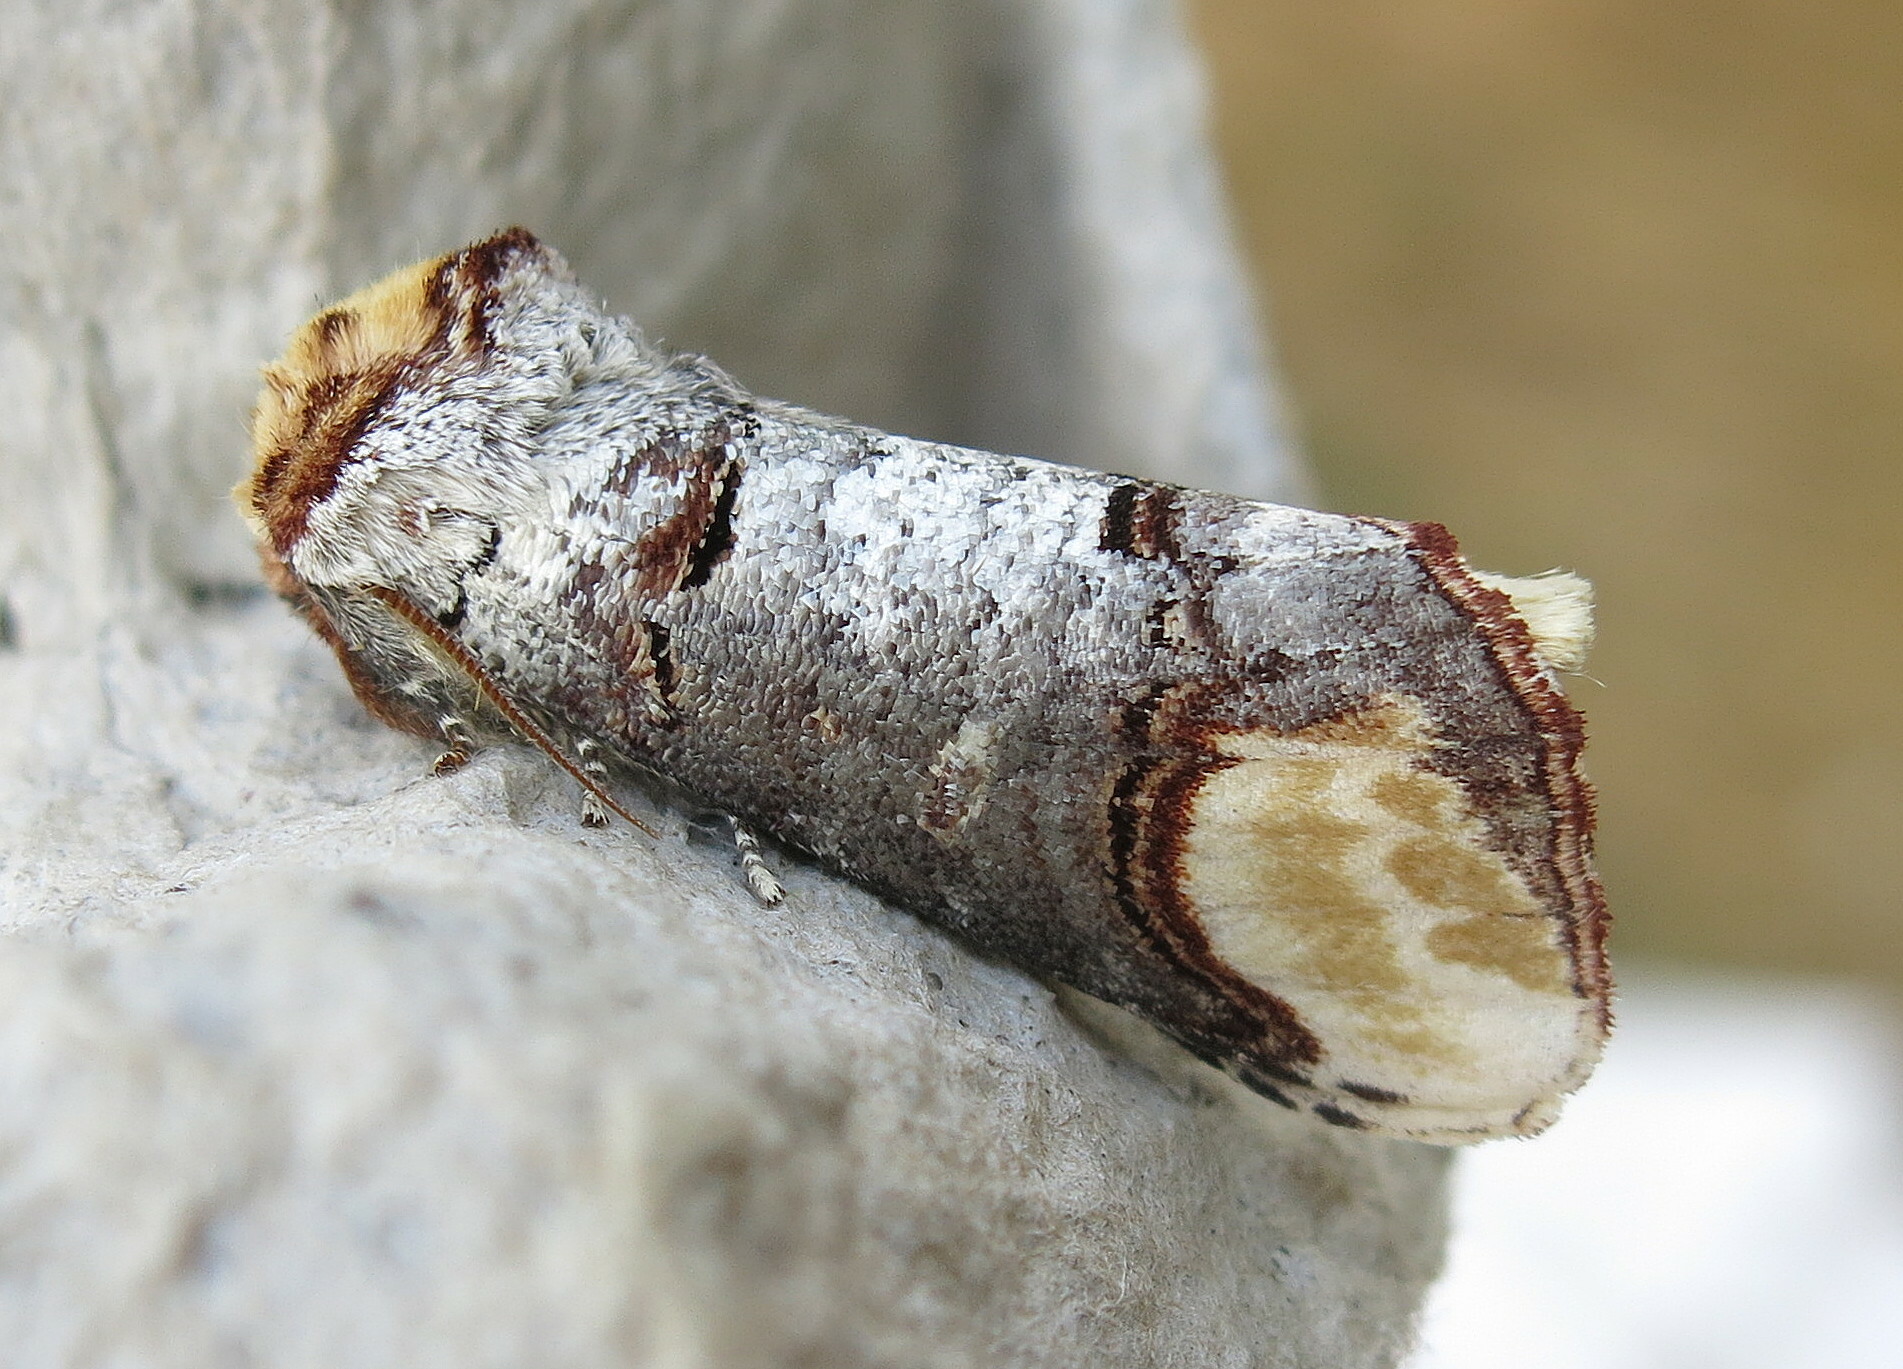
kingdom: Animalia
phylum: Arthropoda
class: Insecta
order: Lepidoptera
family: Notodontidae
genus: Phalera
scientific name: Phalera bucephala
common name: Buff-tip
